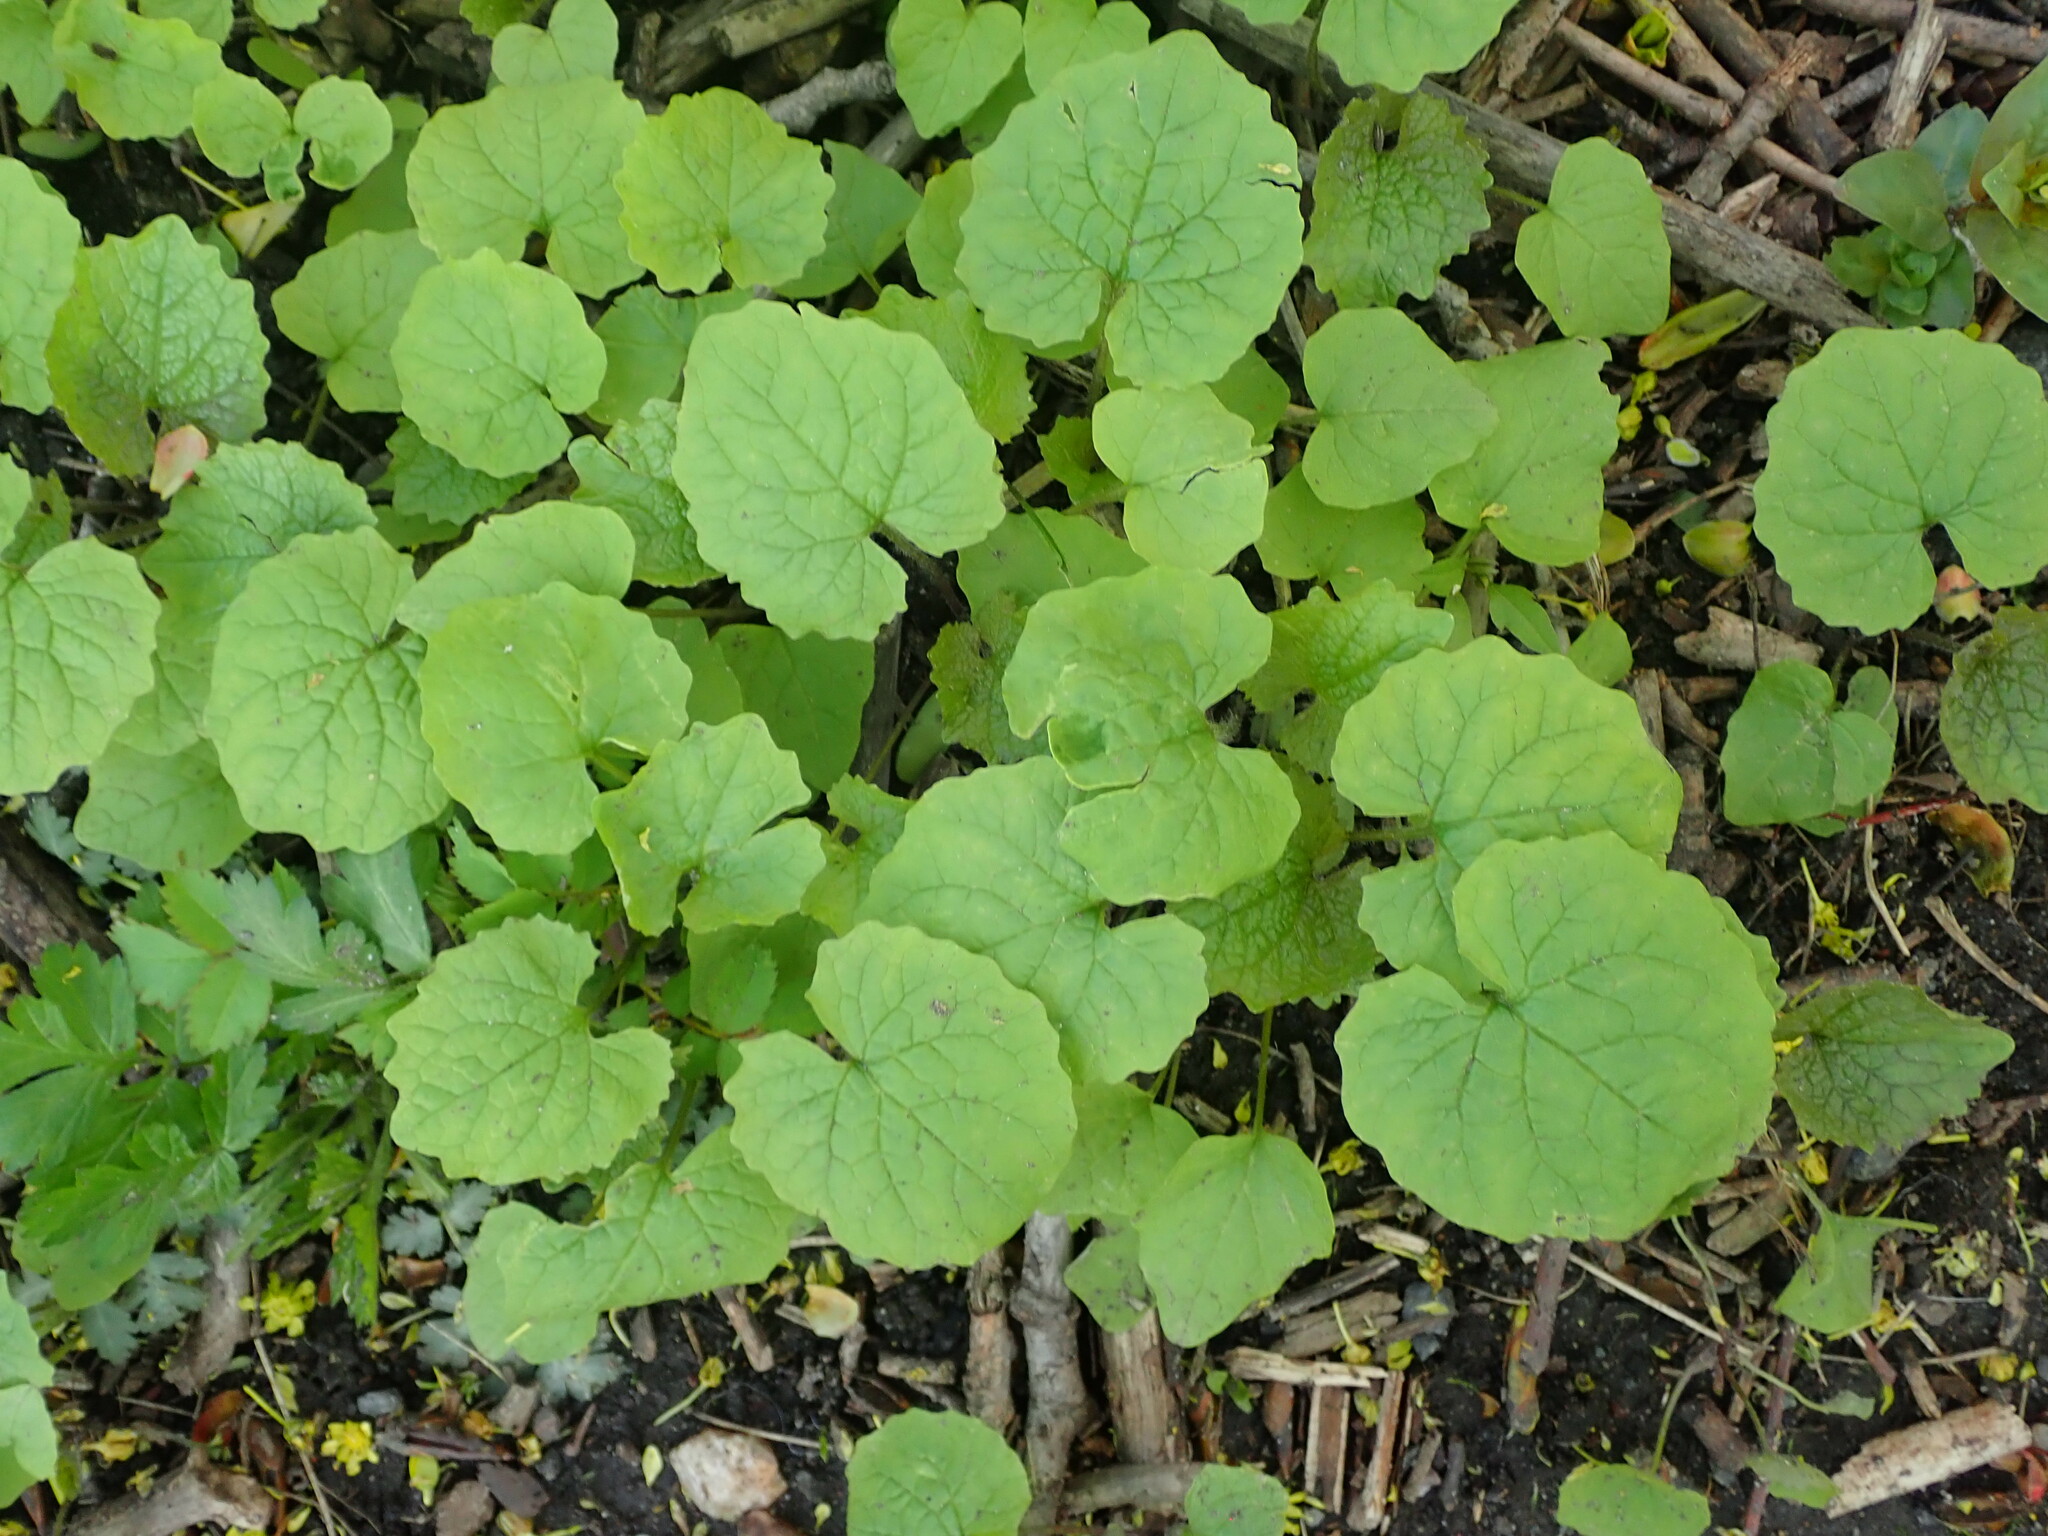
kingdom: Plantae
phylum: Tracheophyta
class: Magnoliopsida
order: Brassicales
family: Brassicaceae
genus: Alliaria
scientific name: Alliaria petiolata
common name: Garlic mustard
